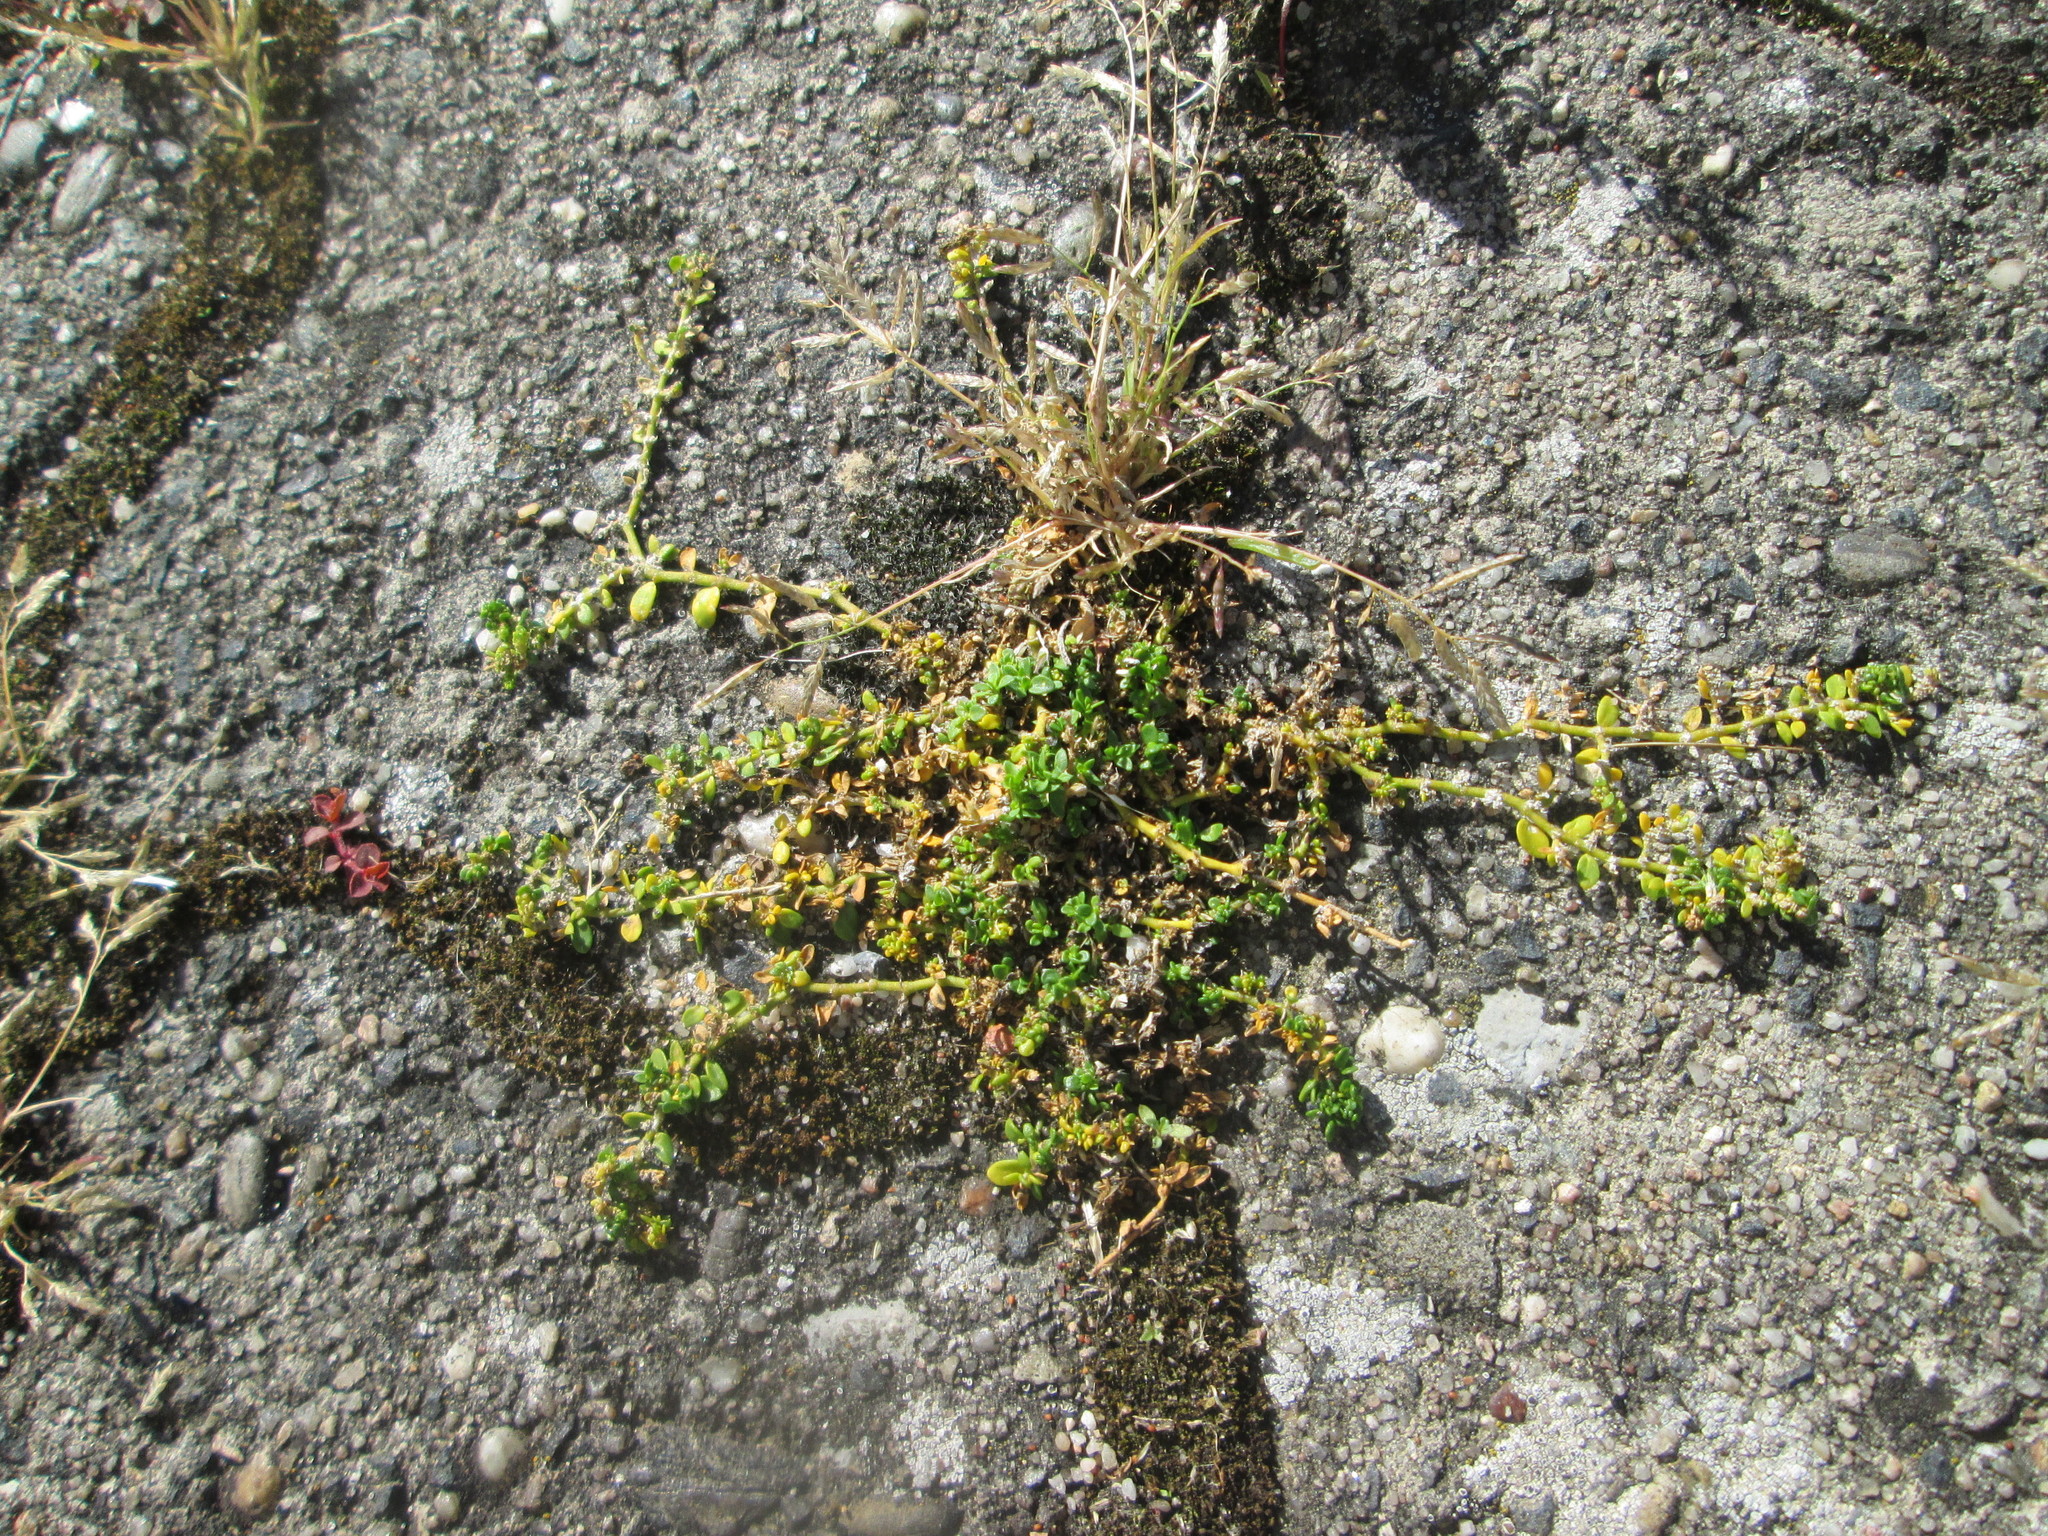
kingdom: Plantae
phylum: Tracheophyta
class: Magnoliopsida
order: Caryophyllales
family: Caryophyllaceae
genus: Herniaria
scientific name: Herniaria glabra
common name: Smooth rupturewort
